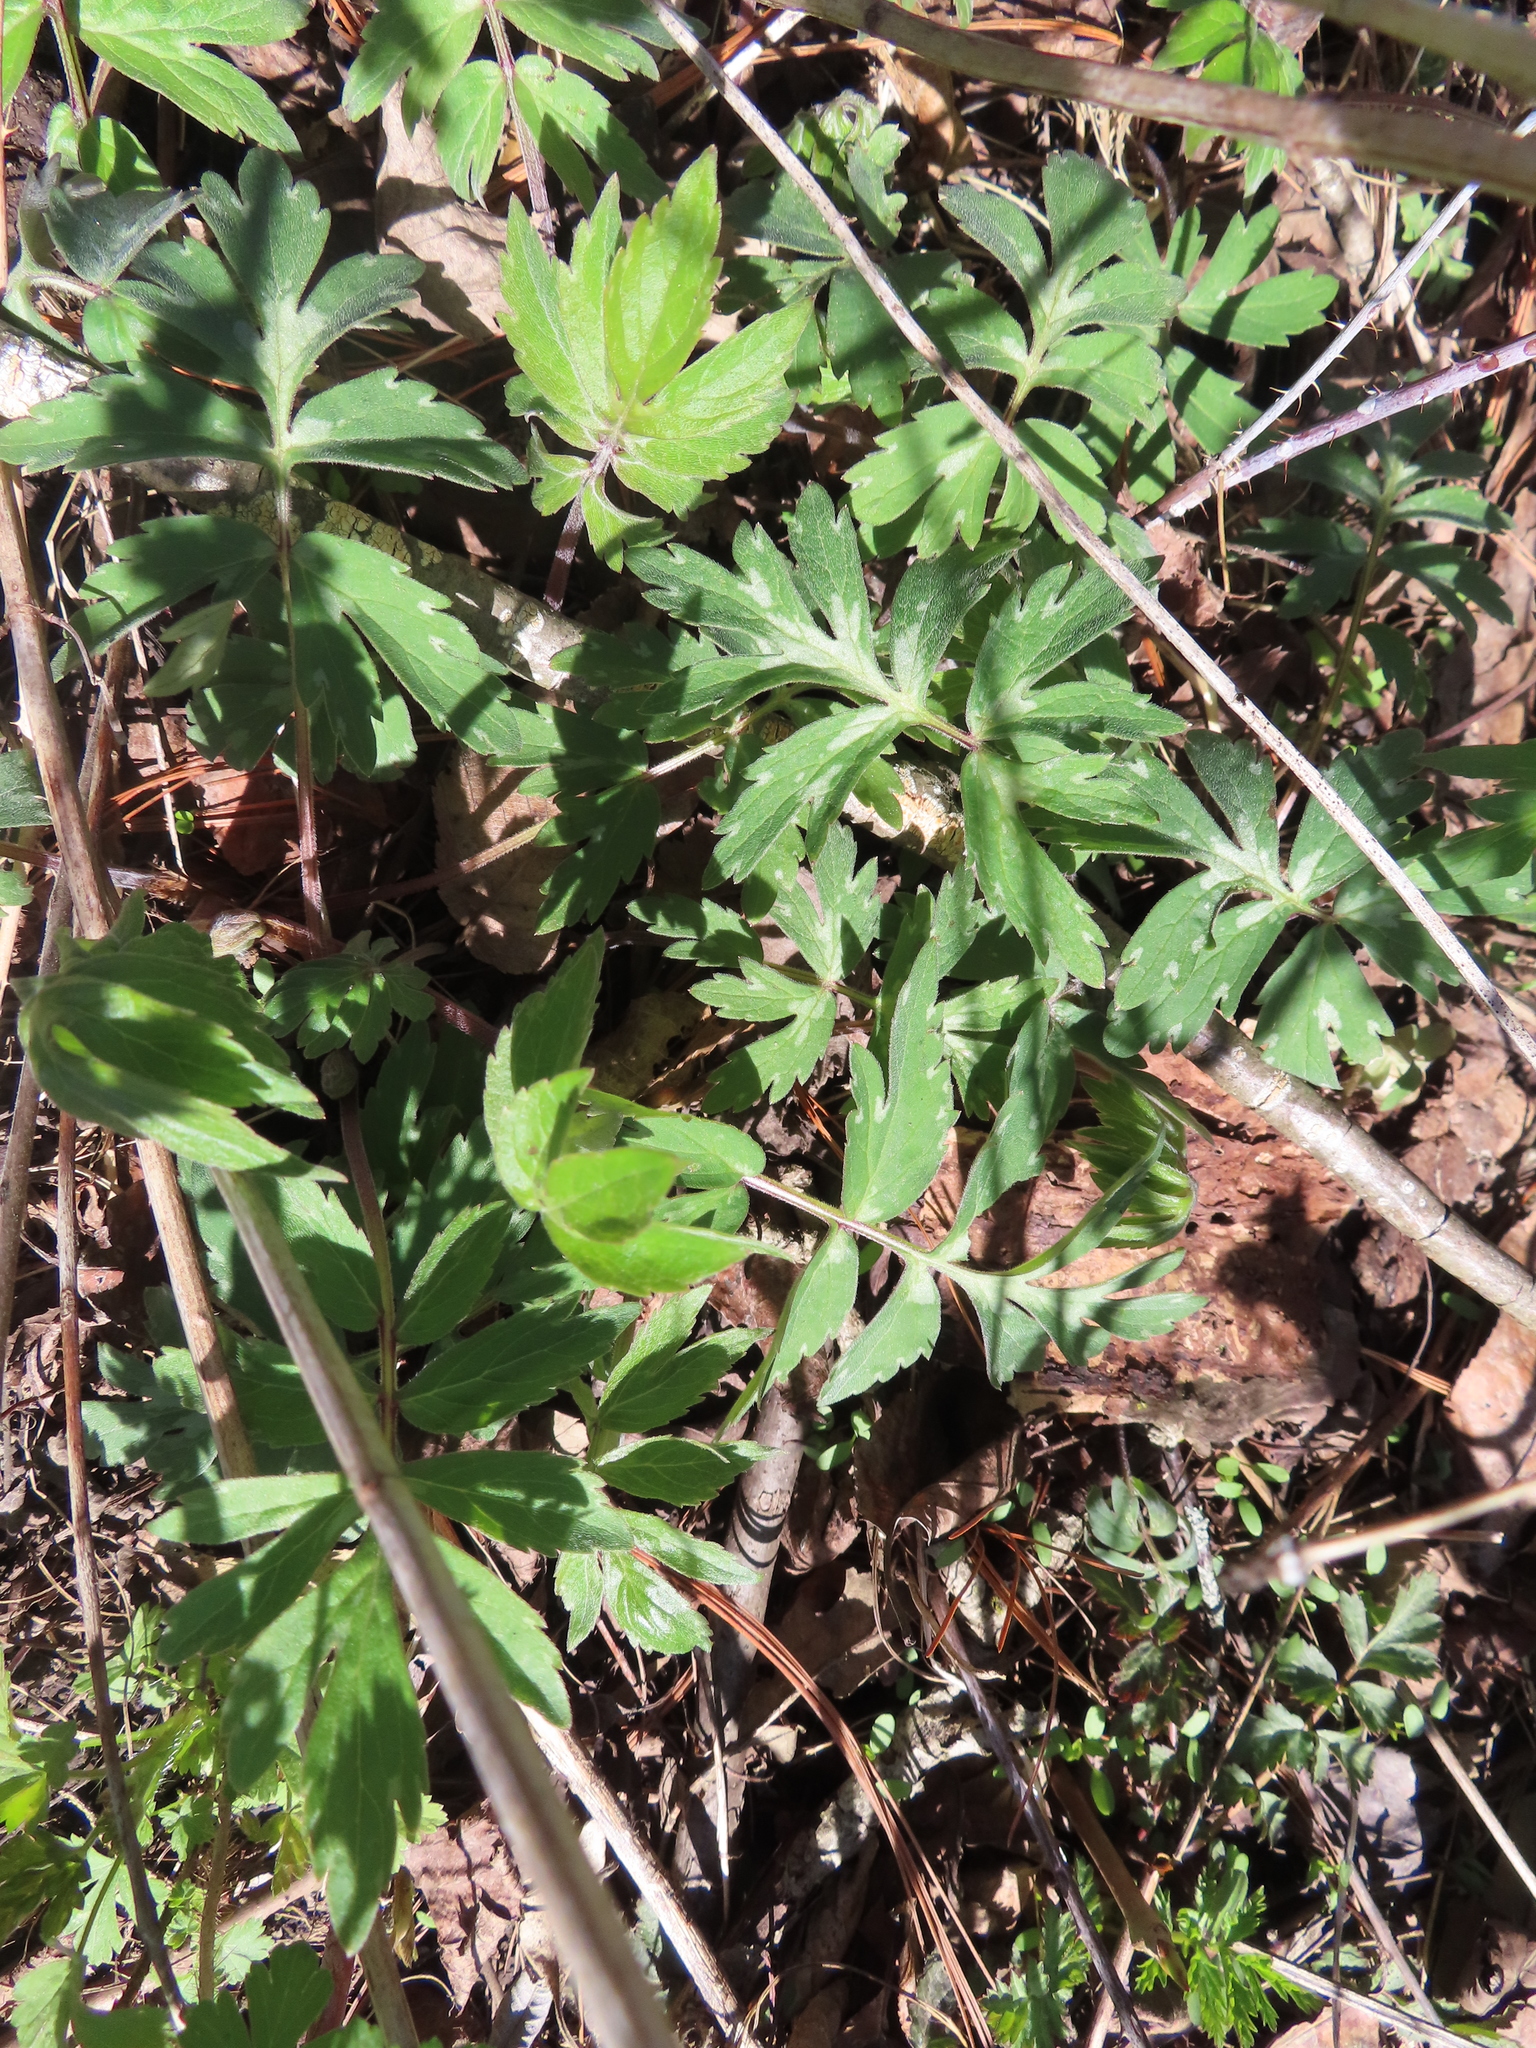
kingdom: Plantae
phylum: Tracheophyta
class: Magnoliopsida
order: Boraginales
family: Hydrophyllaceae
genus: Hydrophyllum
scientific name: Hydrophyllum virginianum
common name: Virginia waterleaf
